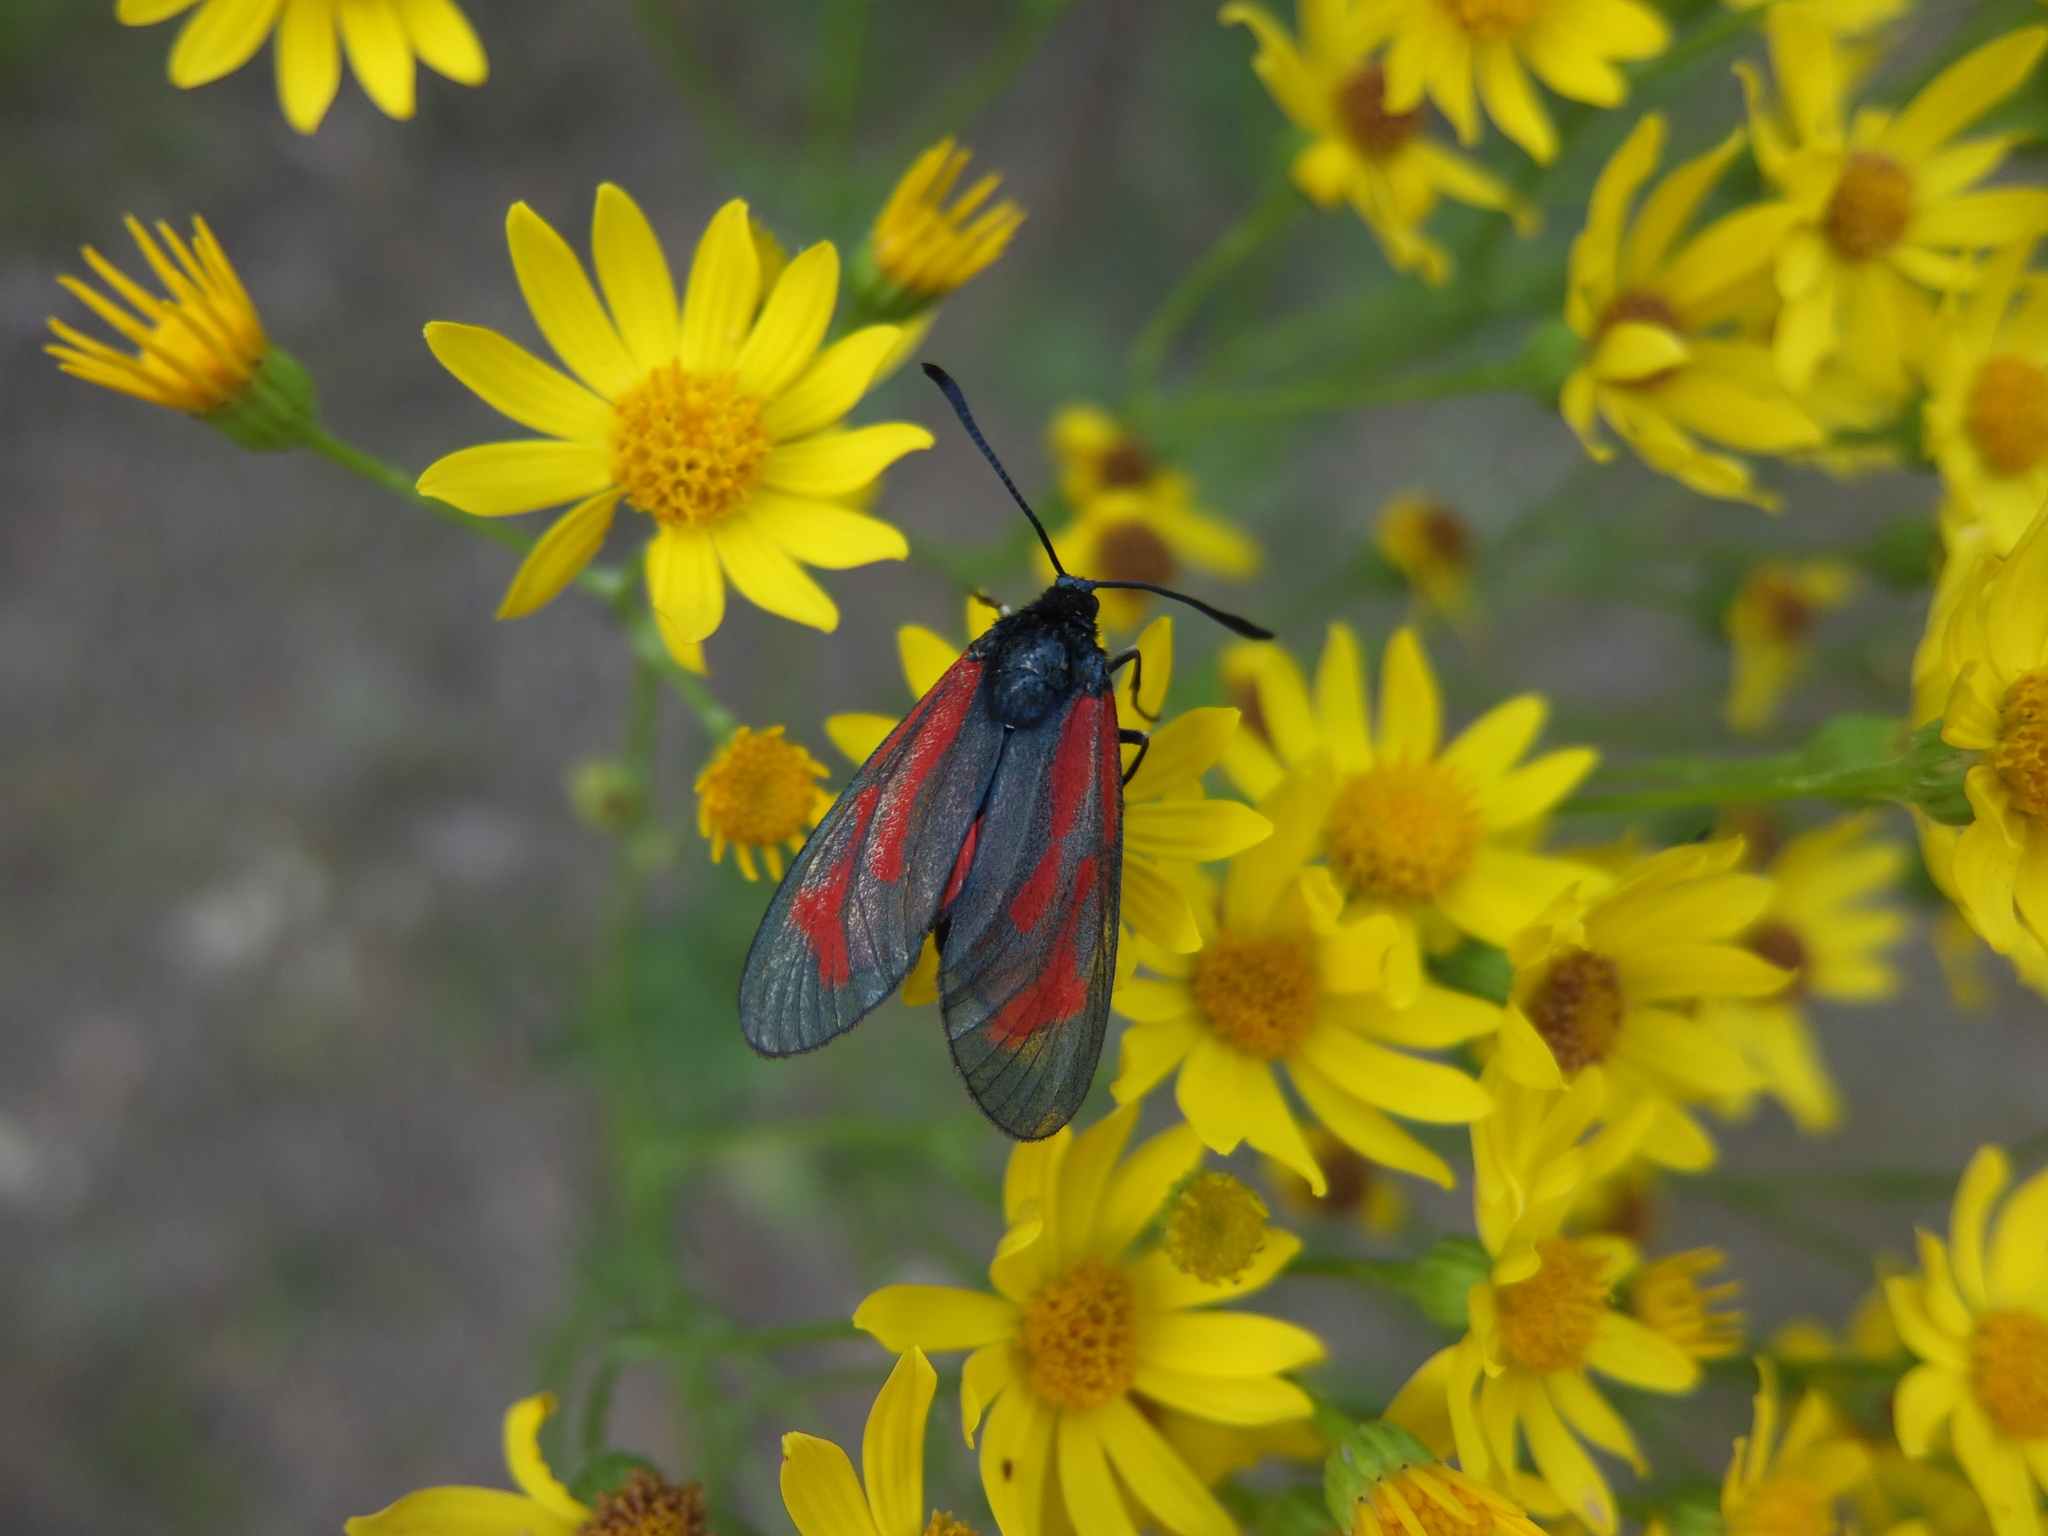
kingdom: Animalia
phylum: Arthropoda
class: Insecta
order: Lepidoptera
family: Zygaenidae
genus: Zygaena
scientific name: Zygaena minos
